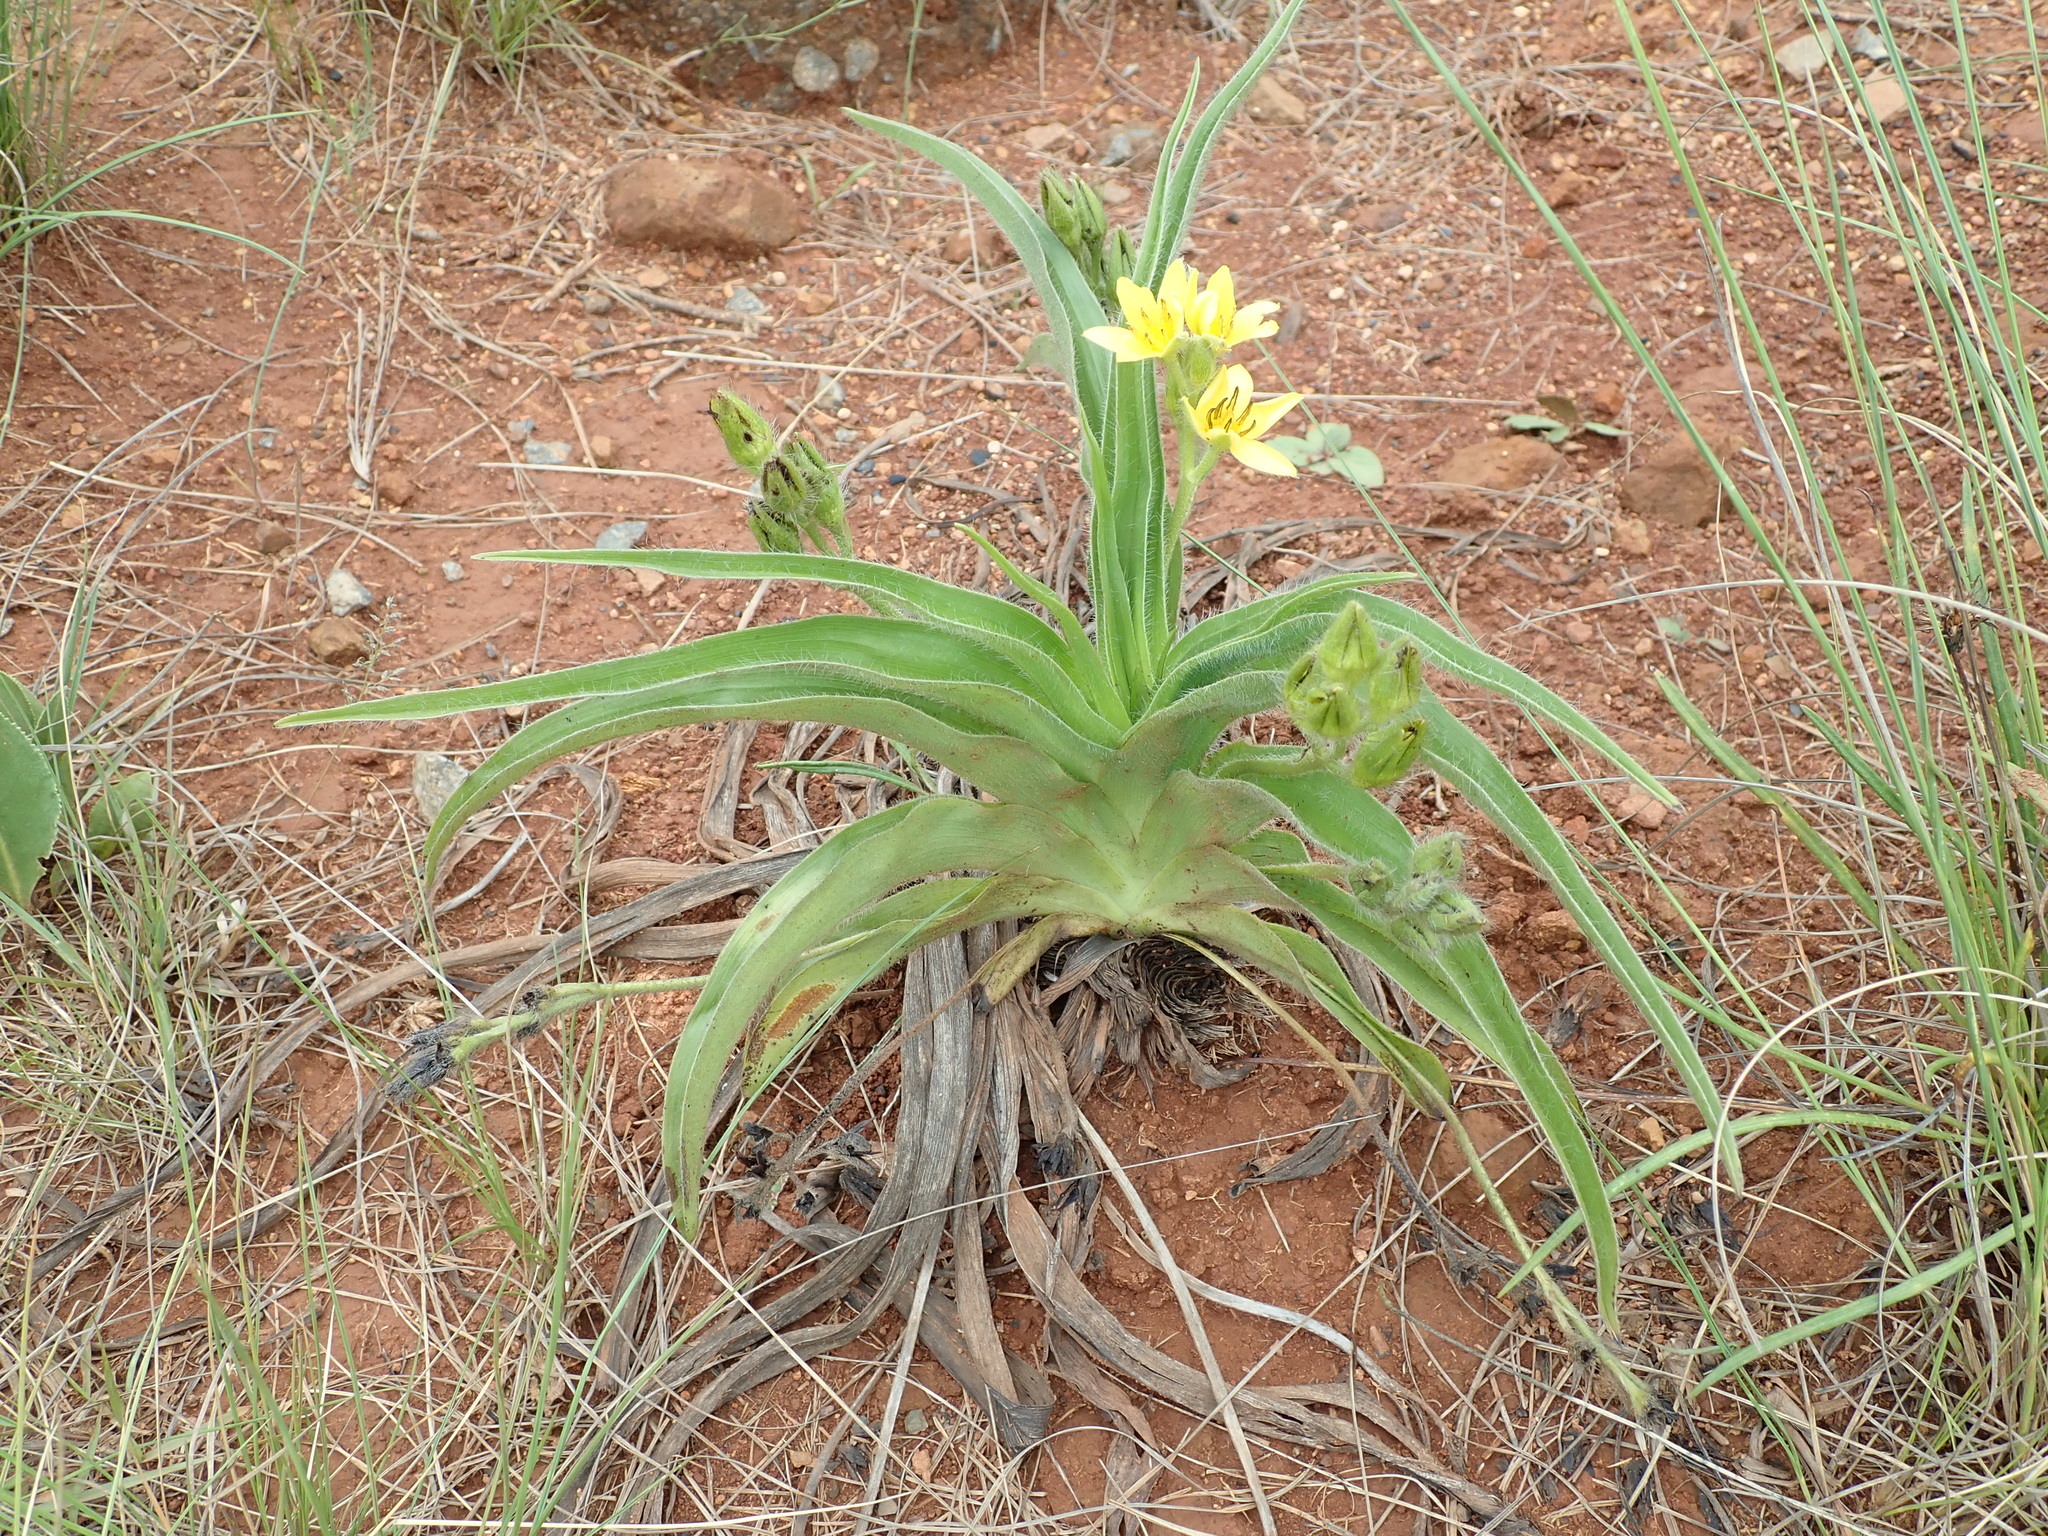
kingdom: Plantae
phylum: Tracheophyta
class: Liliopsida
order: Asparagales
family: Hypoxidaceae
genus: Hypoxis
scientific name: Hypoxis hemerocallidea
